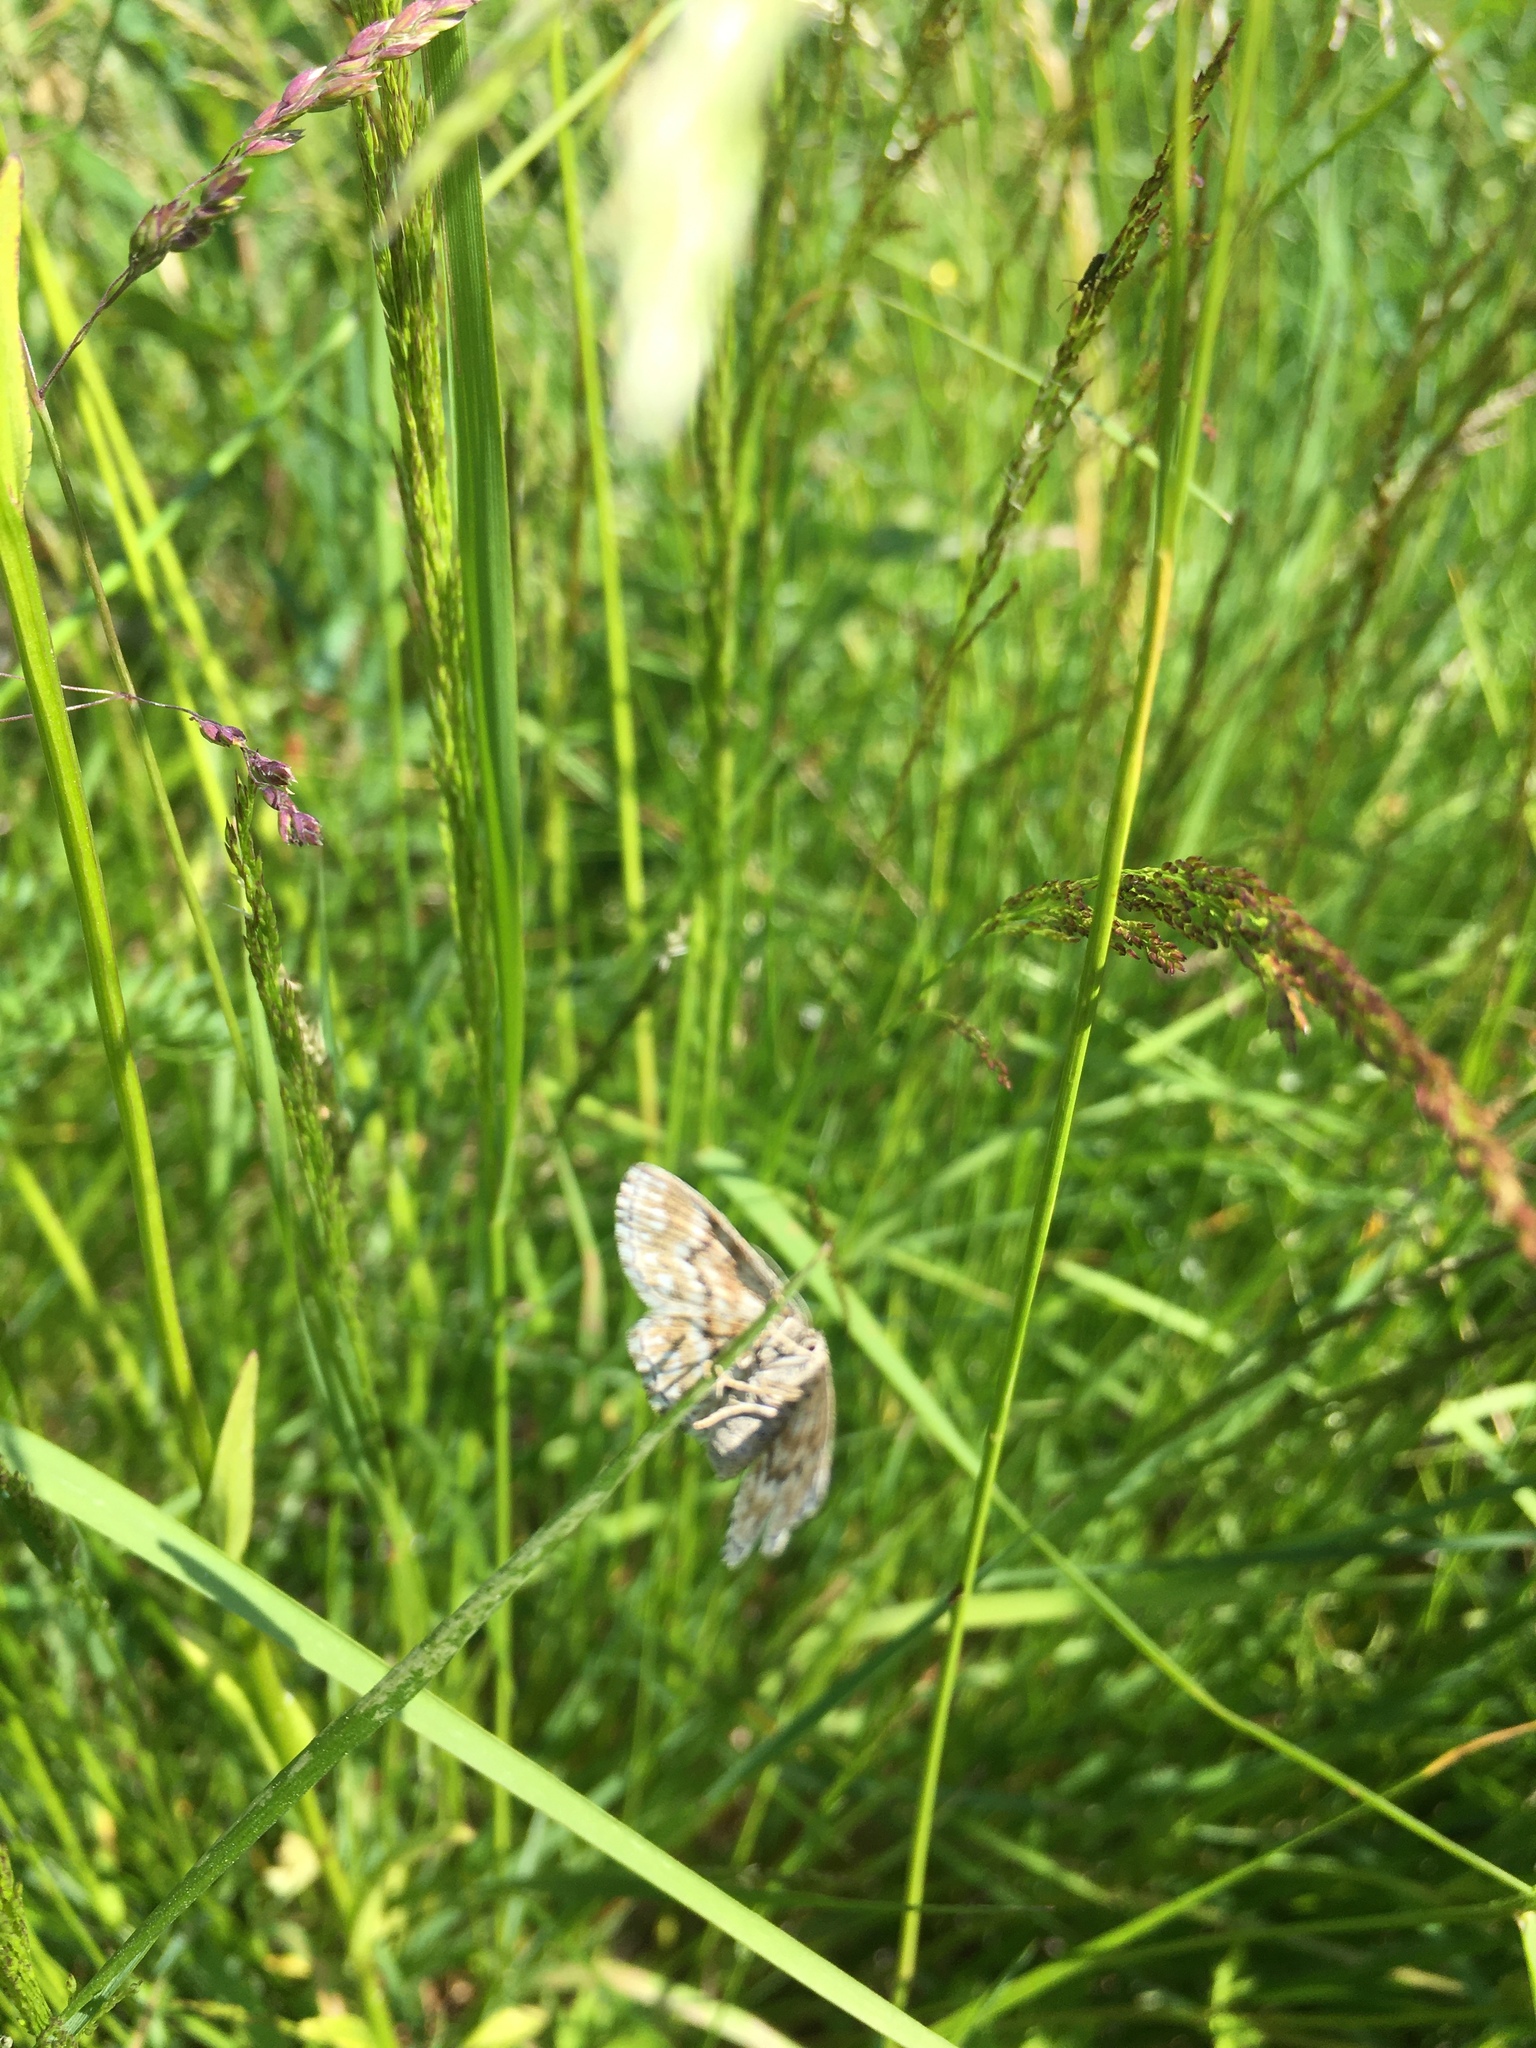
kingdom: Animalia
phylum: Arthropoda
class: Insecta
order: Lepidoptera
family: Geometridae
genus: Scopula
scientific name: Scopula immorata
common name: Lewes wave
